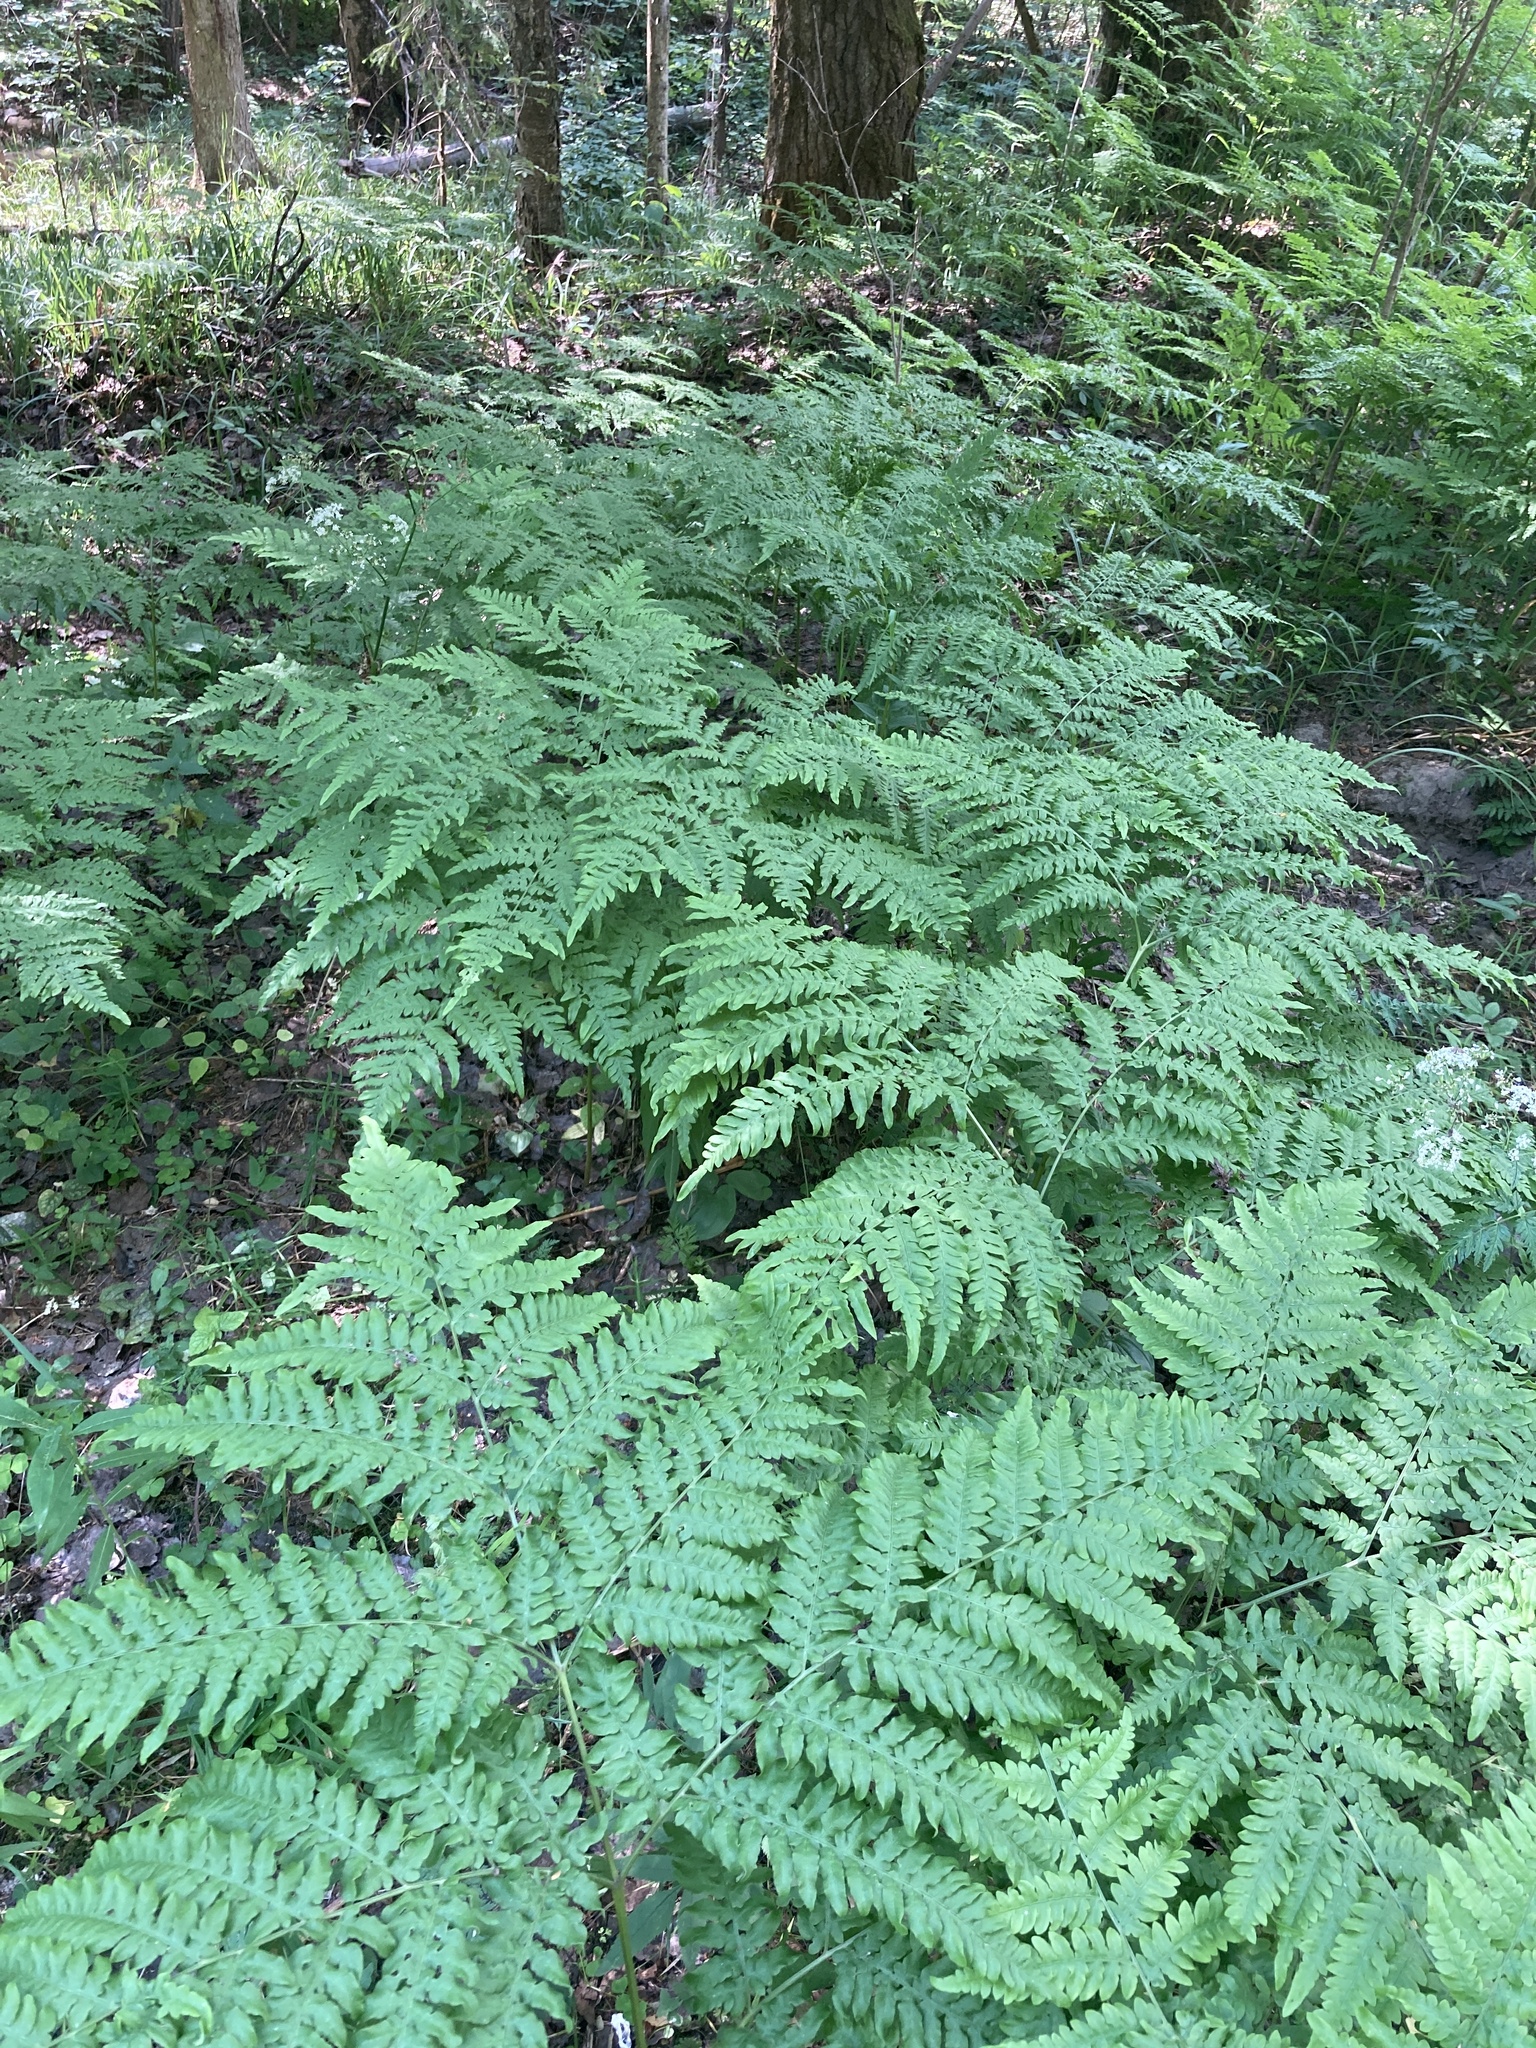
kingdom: Plantae
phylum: Tracheophyta
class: Polypodiopsida
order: Polypodiales
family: Dennstaedtiaceae
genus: Pteridium
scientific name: Pteridium aquilinum
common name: Bracken
